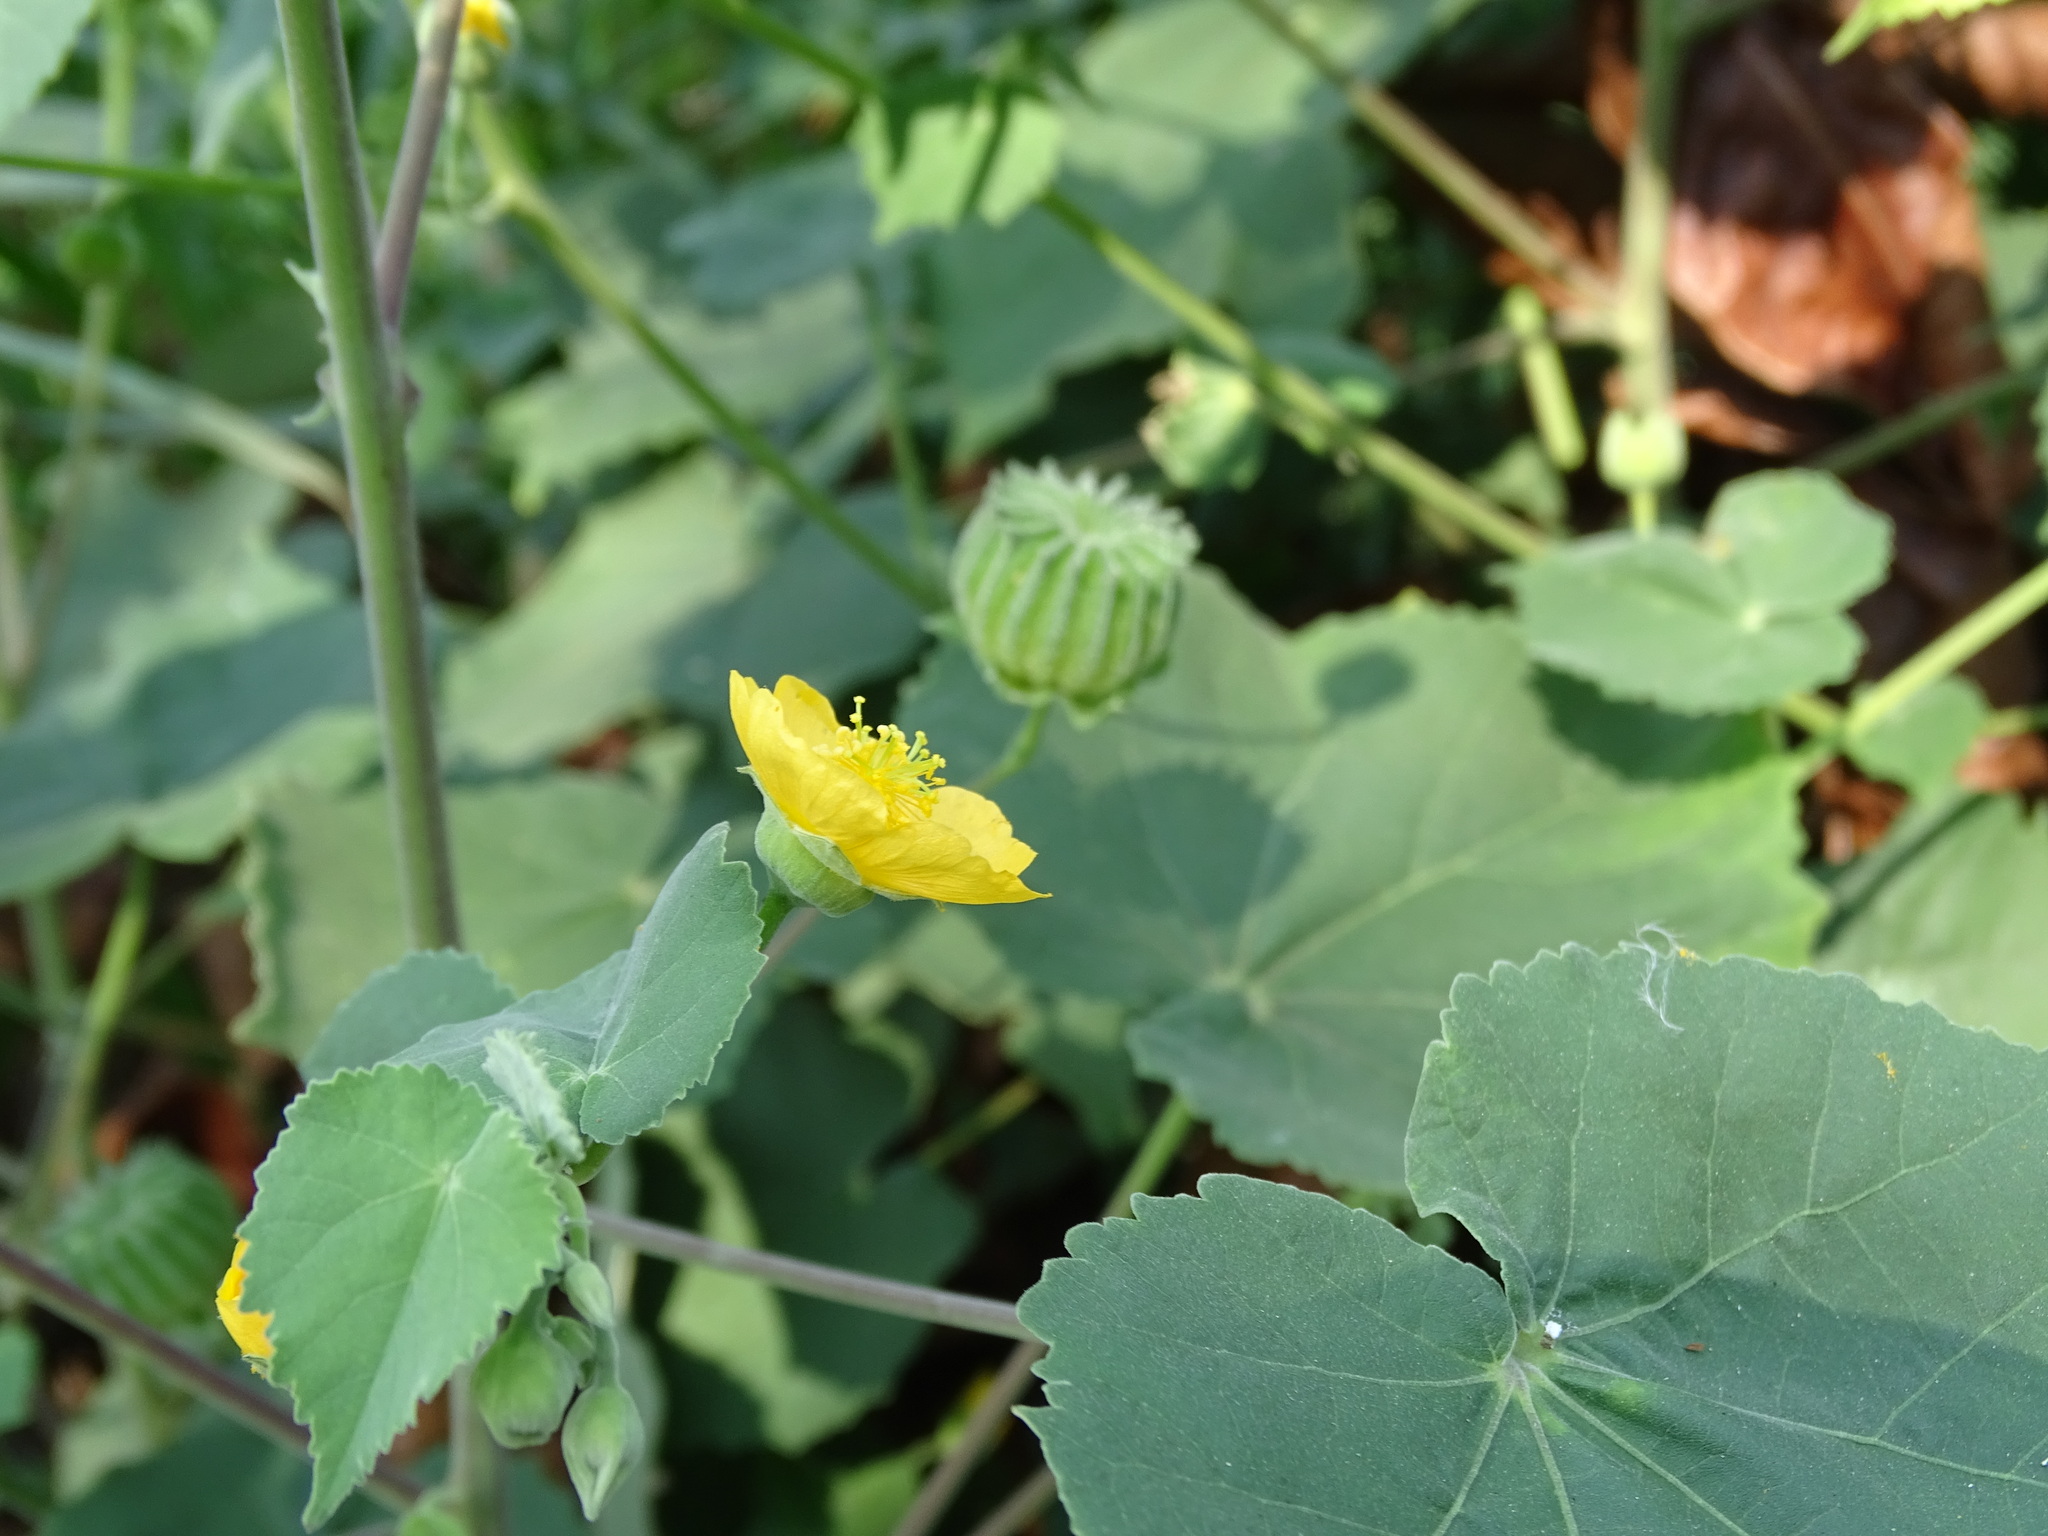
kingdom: Plantae
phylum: Tracheophyta
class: Magnoliopsida
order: Malvales
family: Malvaceae
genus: Abutilon
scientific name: Abutilon indicum
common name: Indian abutilon
